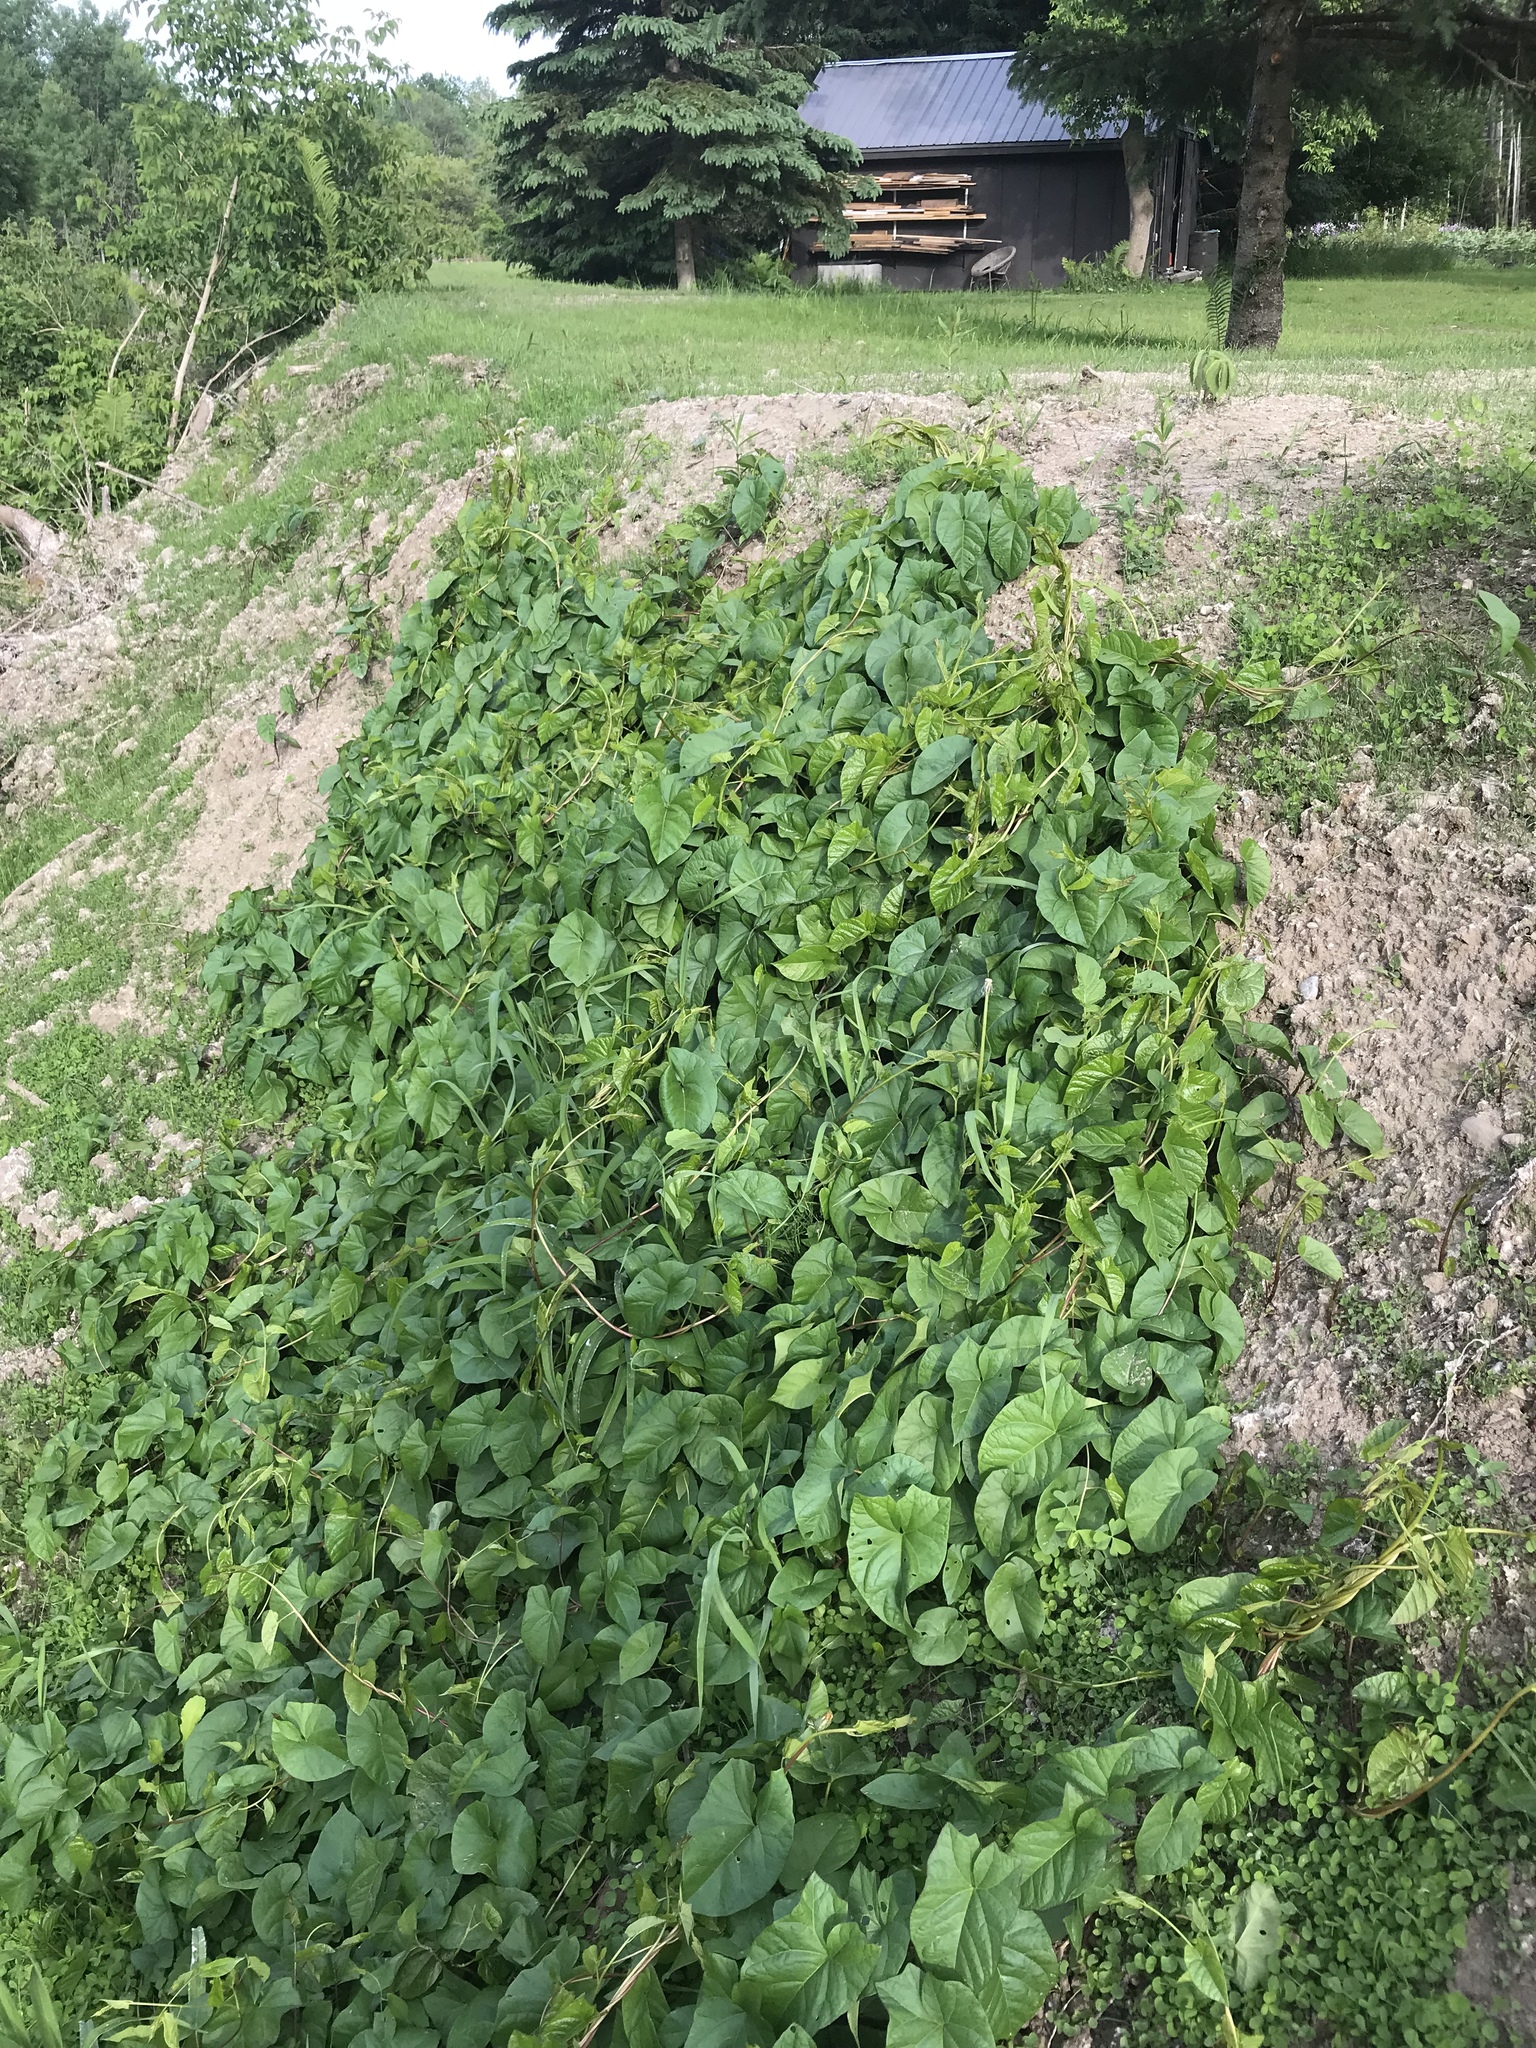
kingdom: Plantae
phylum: Tracheophyta
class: Magnoliopsida
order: Solanales
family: Convolvulaceae
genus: Convolvulus
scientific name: Convolvulus arvensis
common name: Field bindweed
